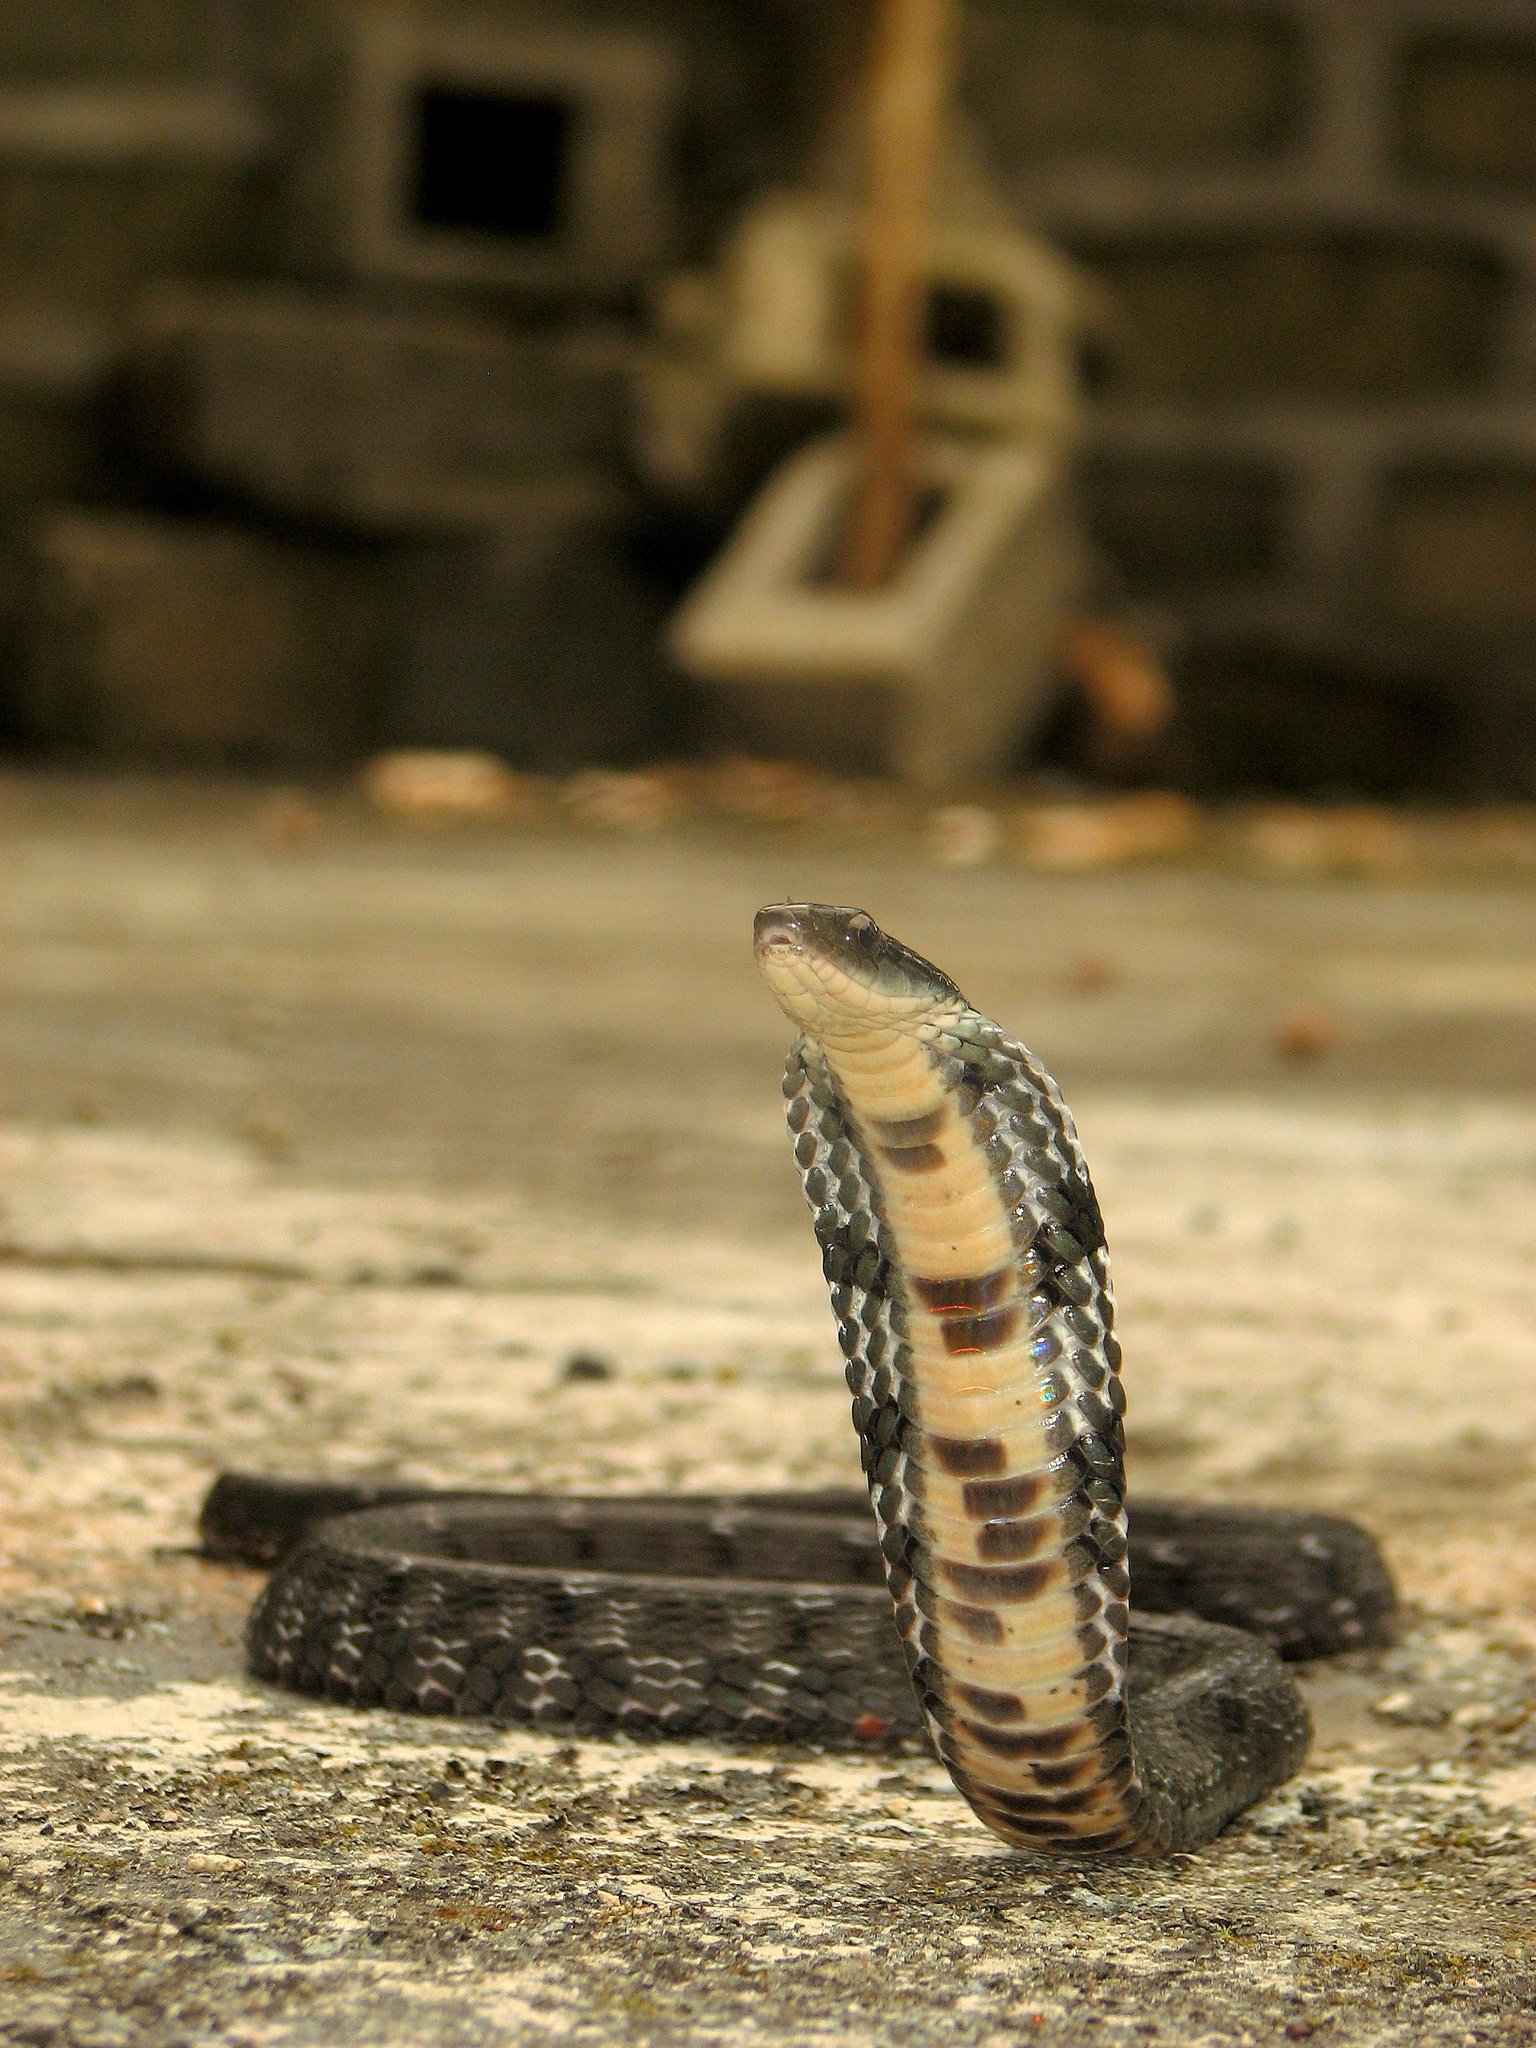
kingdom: Animalia
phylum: Chordata
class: Squamata
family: Colubridae
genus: Pseudoxenodon
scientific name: Pseudoxenodon macrops
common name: Big-eyed mountain keelback
